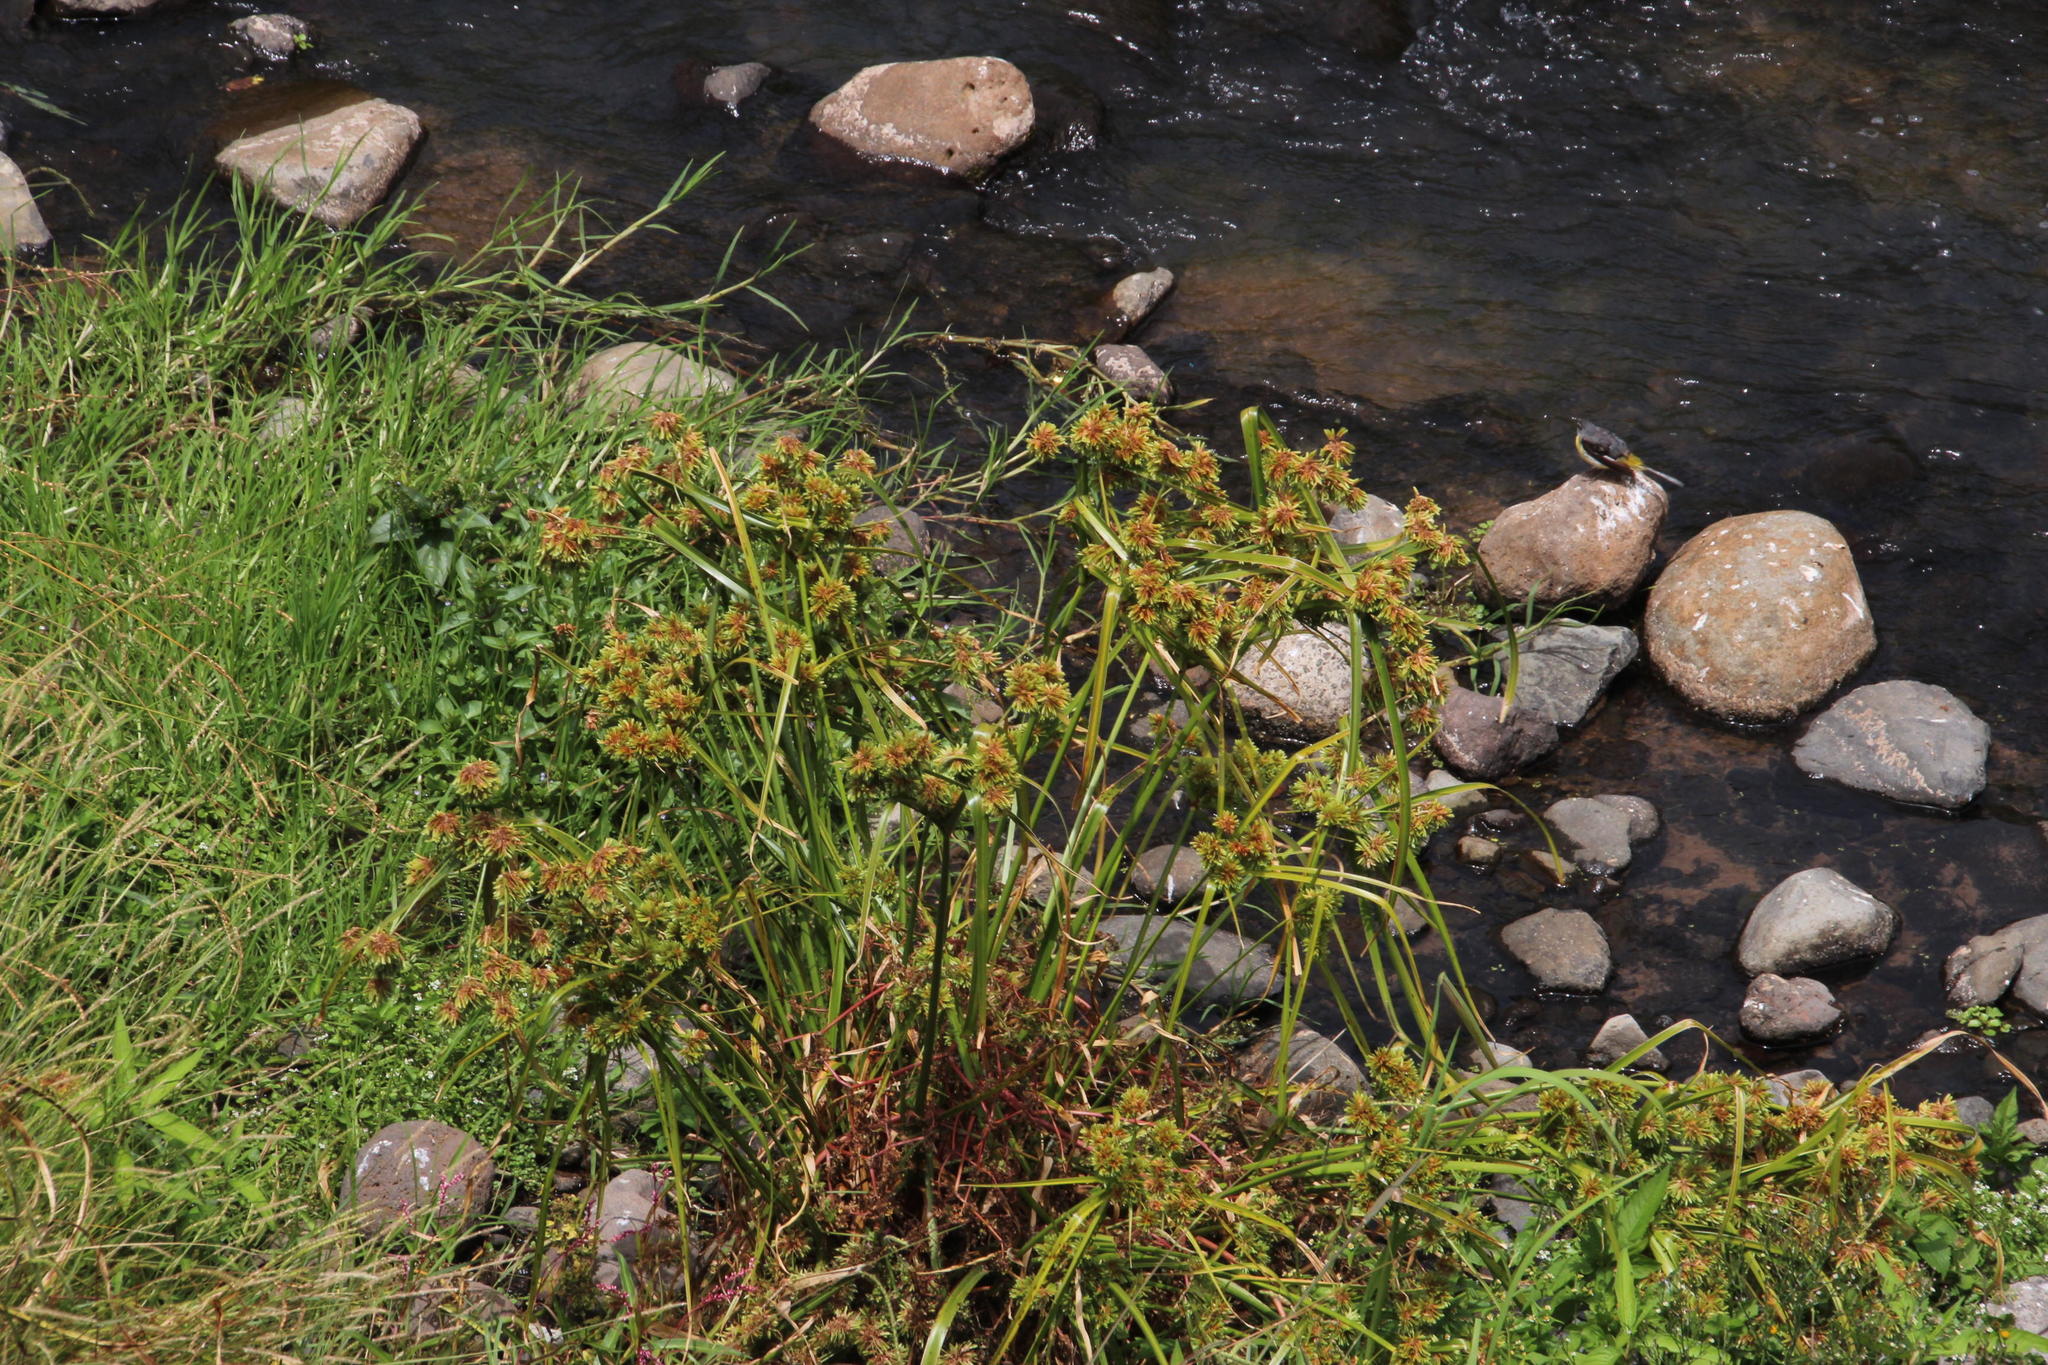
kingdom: Plantae
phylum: Tracheophyta
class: Liliopsida
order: Poales
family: Cyperaceae
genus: Cyperus
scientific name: Cyperus eragrostis
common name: Tall flatsedge
